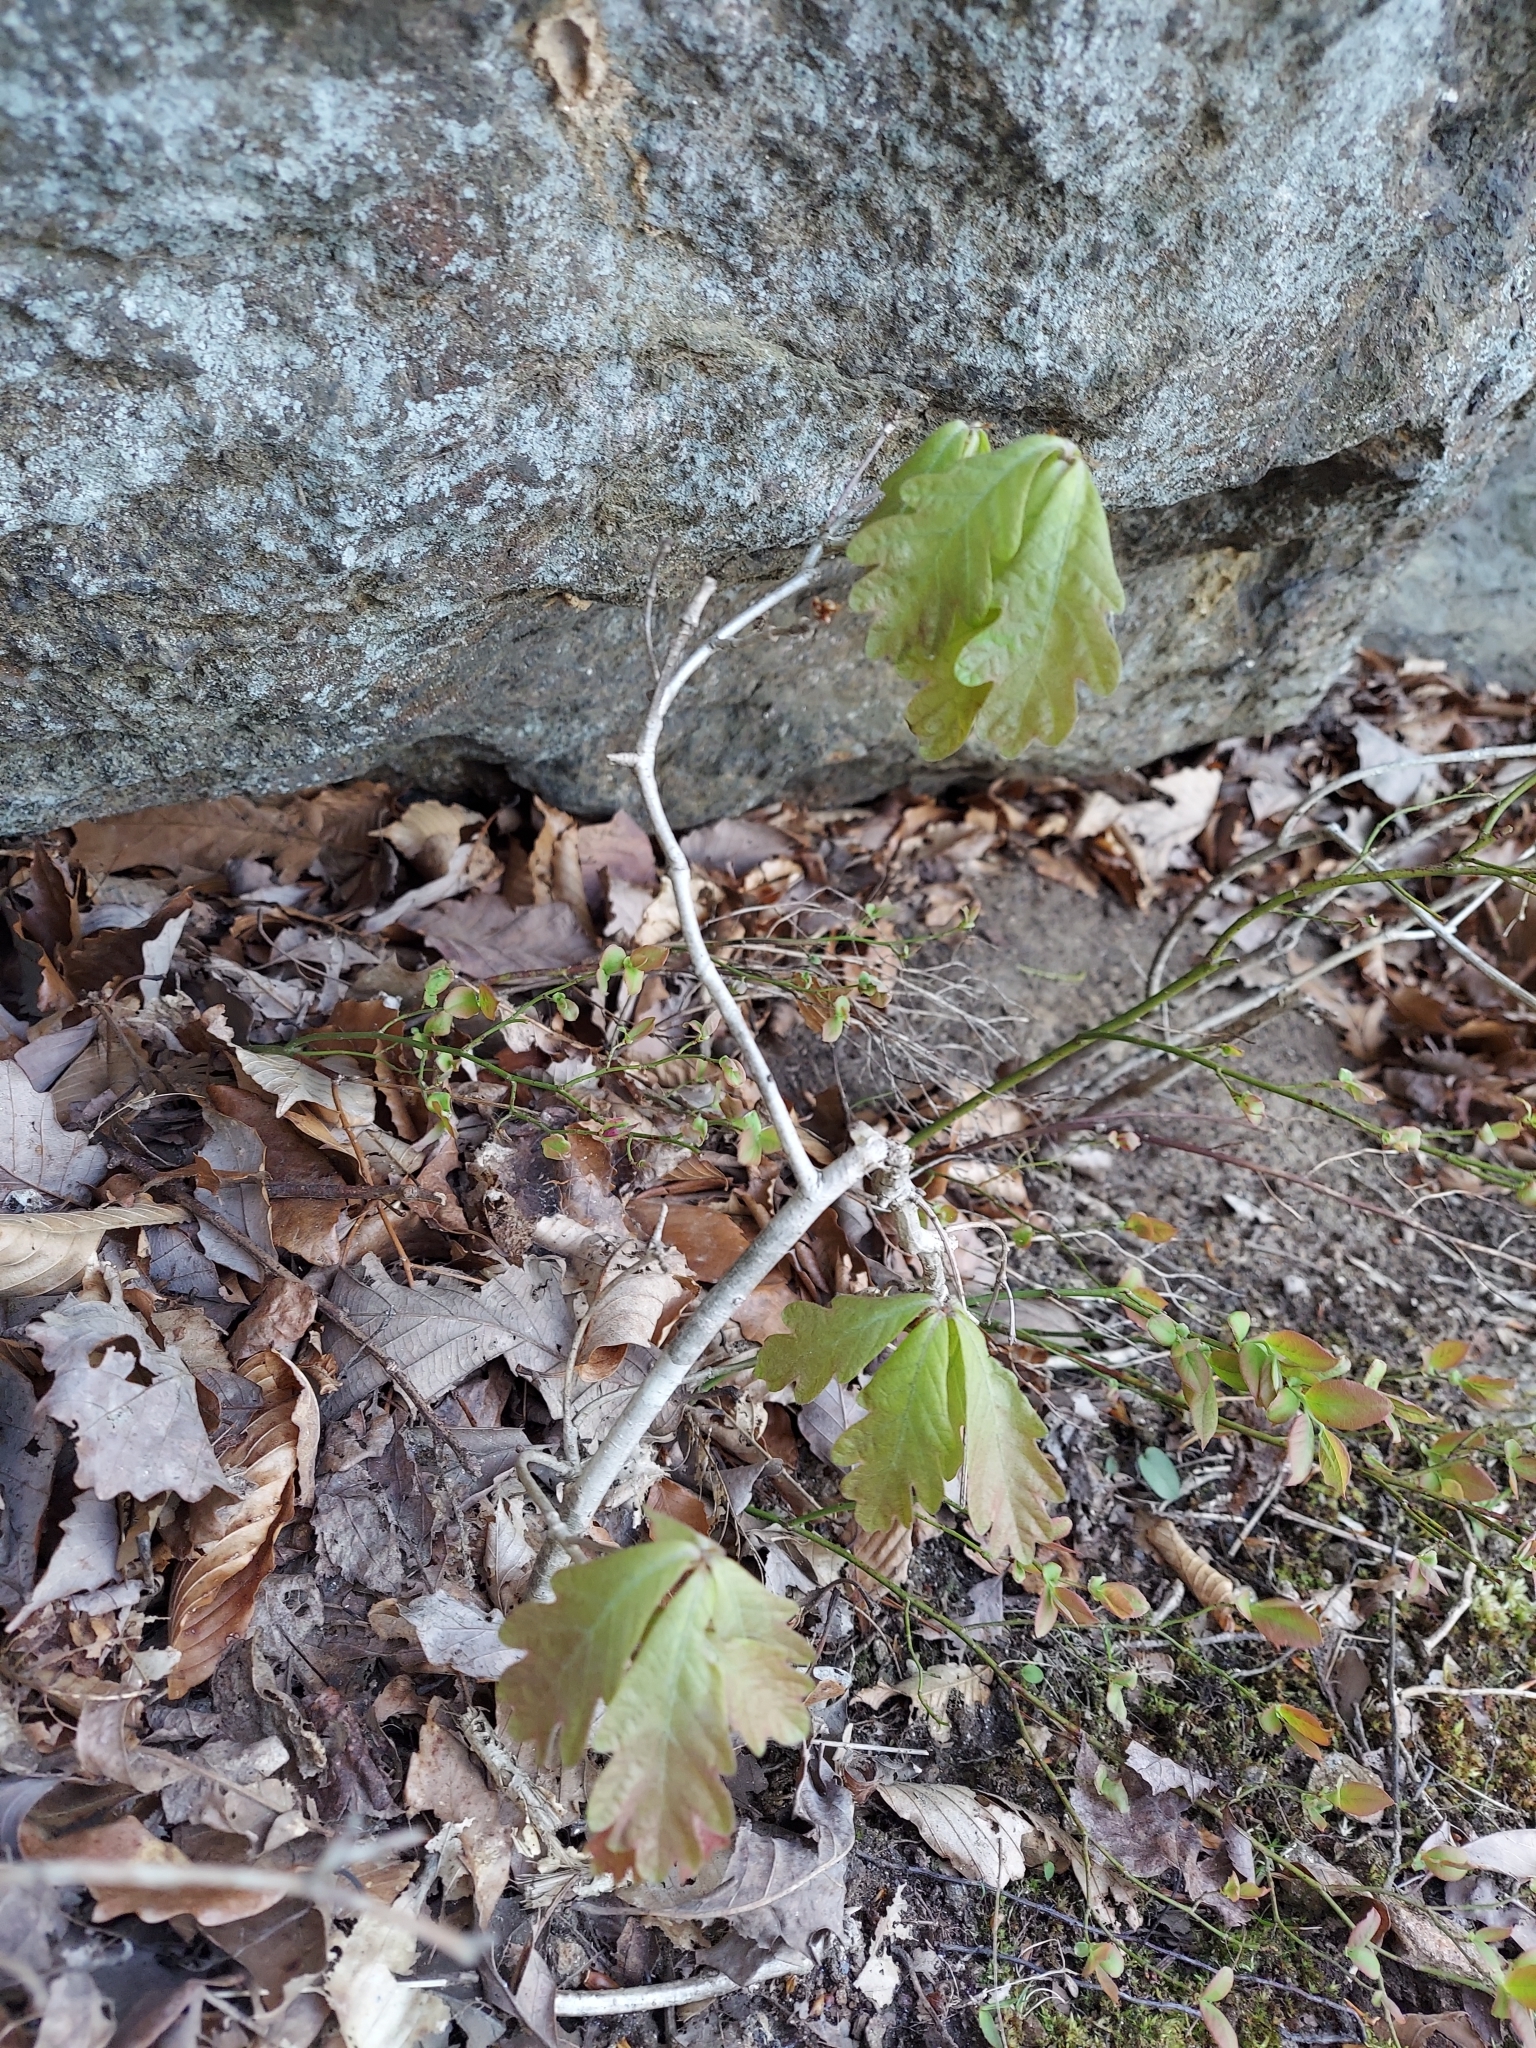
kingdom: Plantae
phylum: Tracheophyta
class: Magnoliopsida
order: Fagales
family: Fagaceae
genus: Quercus
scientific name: Quercus alba
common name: White oak
